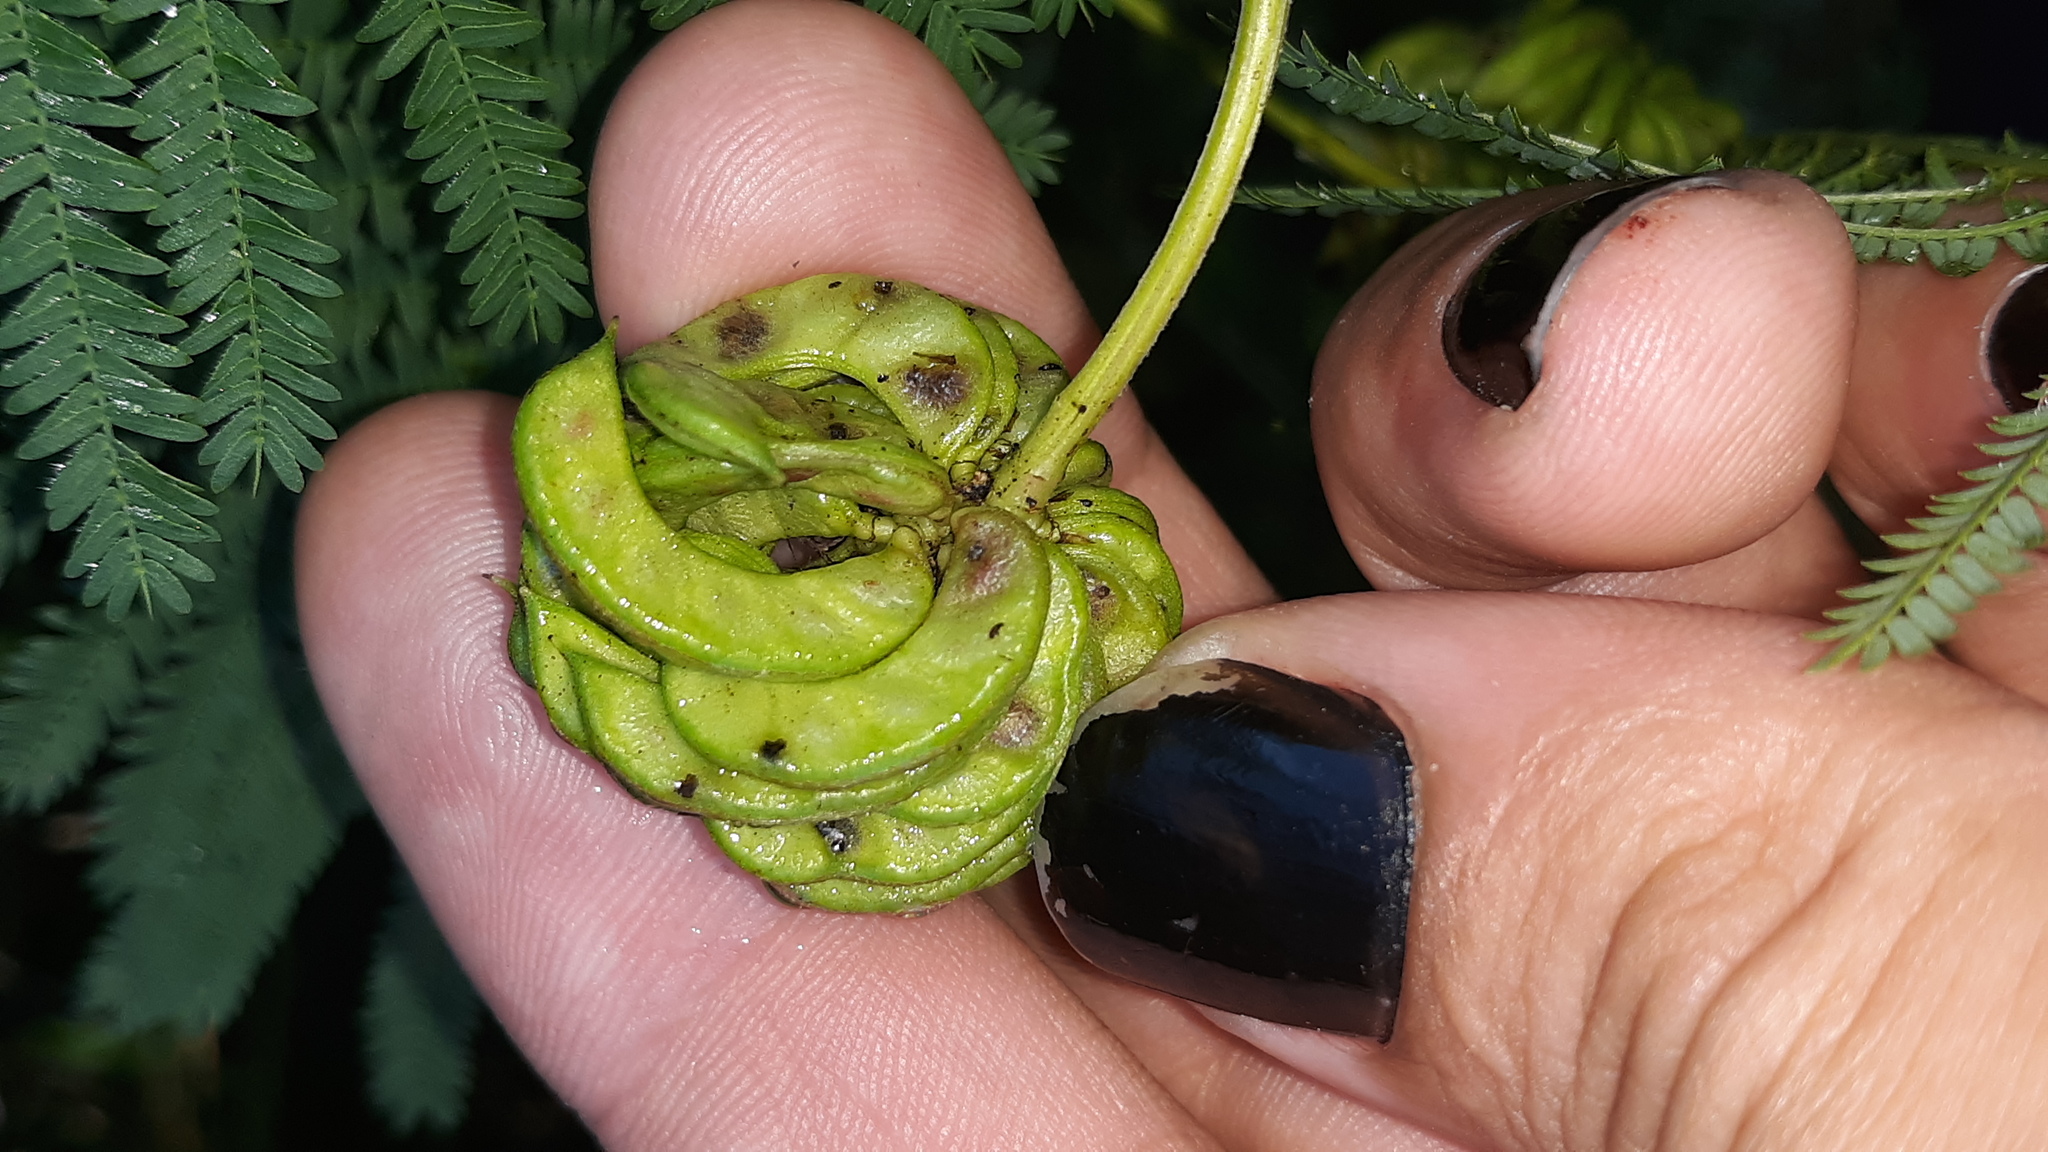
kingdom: Plantae
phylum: Tracheophyta
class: Magnoliopsida
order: Fabales
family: Fabaceae
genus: Desmanthus
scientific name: Desmanthus illinoensis
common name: Illinois bundle-flower
